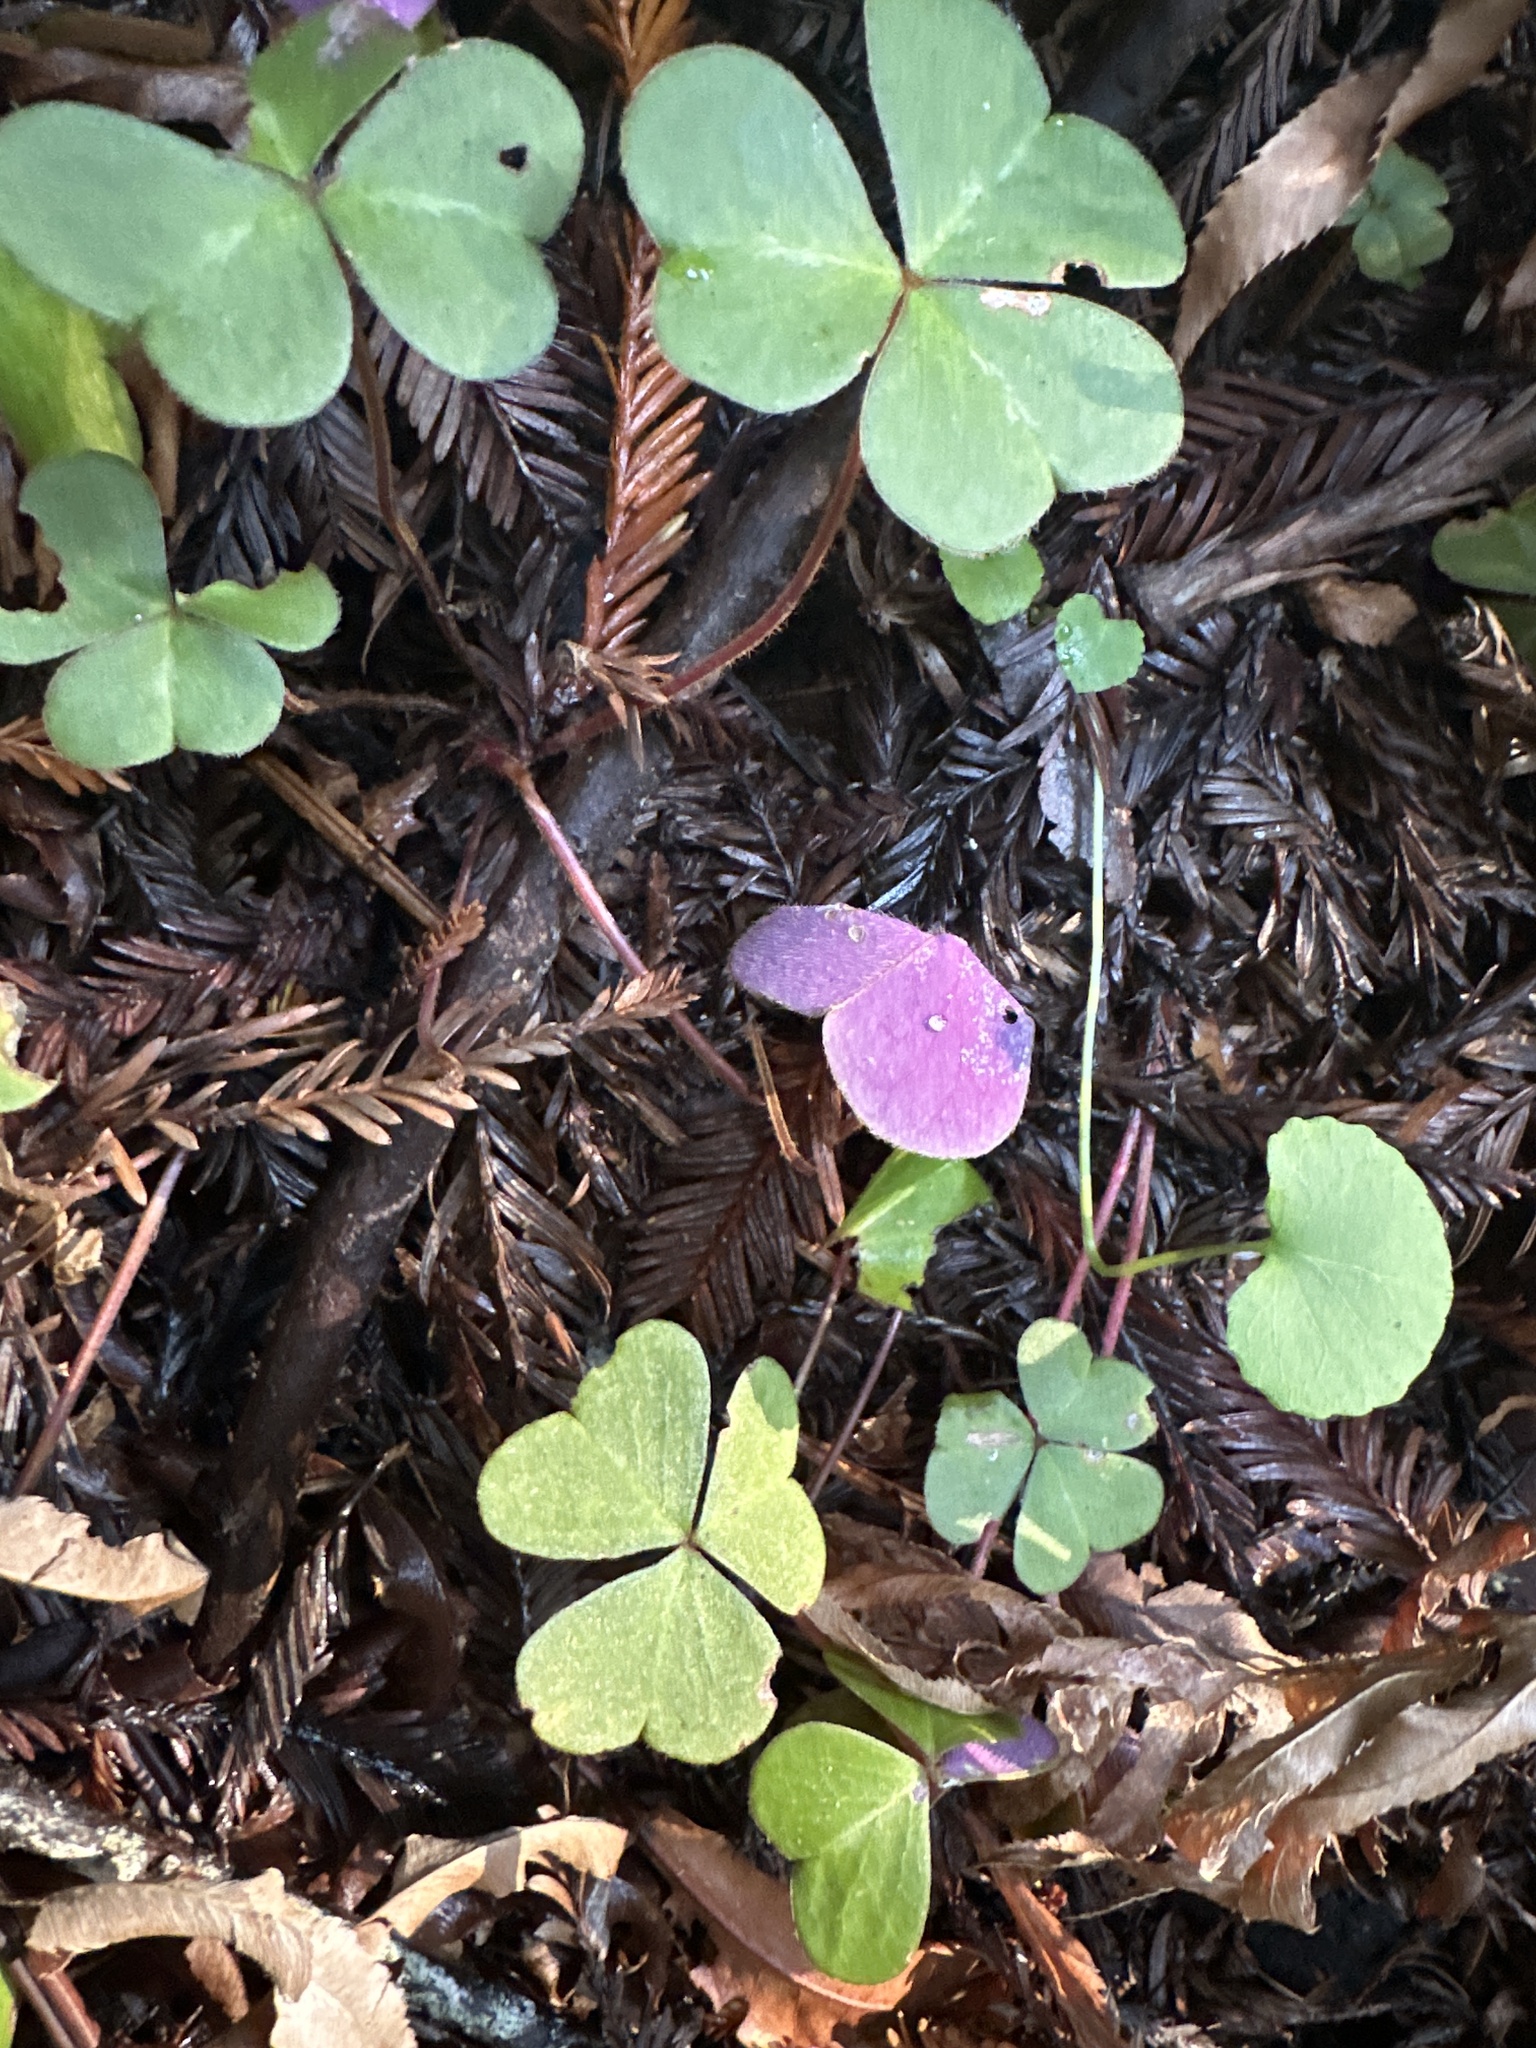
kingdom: Plantae
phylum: Tracheophyta
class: Magnoliopsida
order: Oxalidales
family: Oxalidaceae
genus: Oxalis
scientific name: Oxalis oregana
